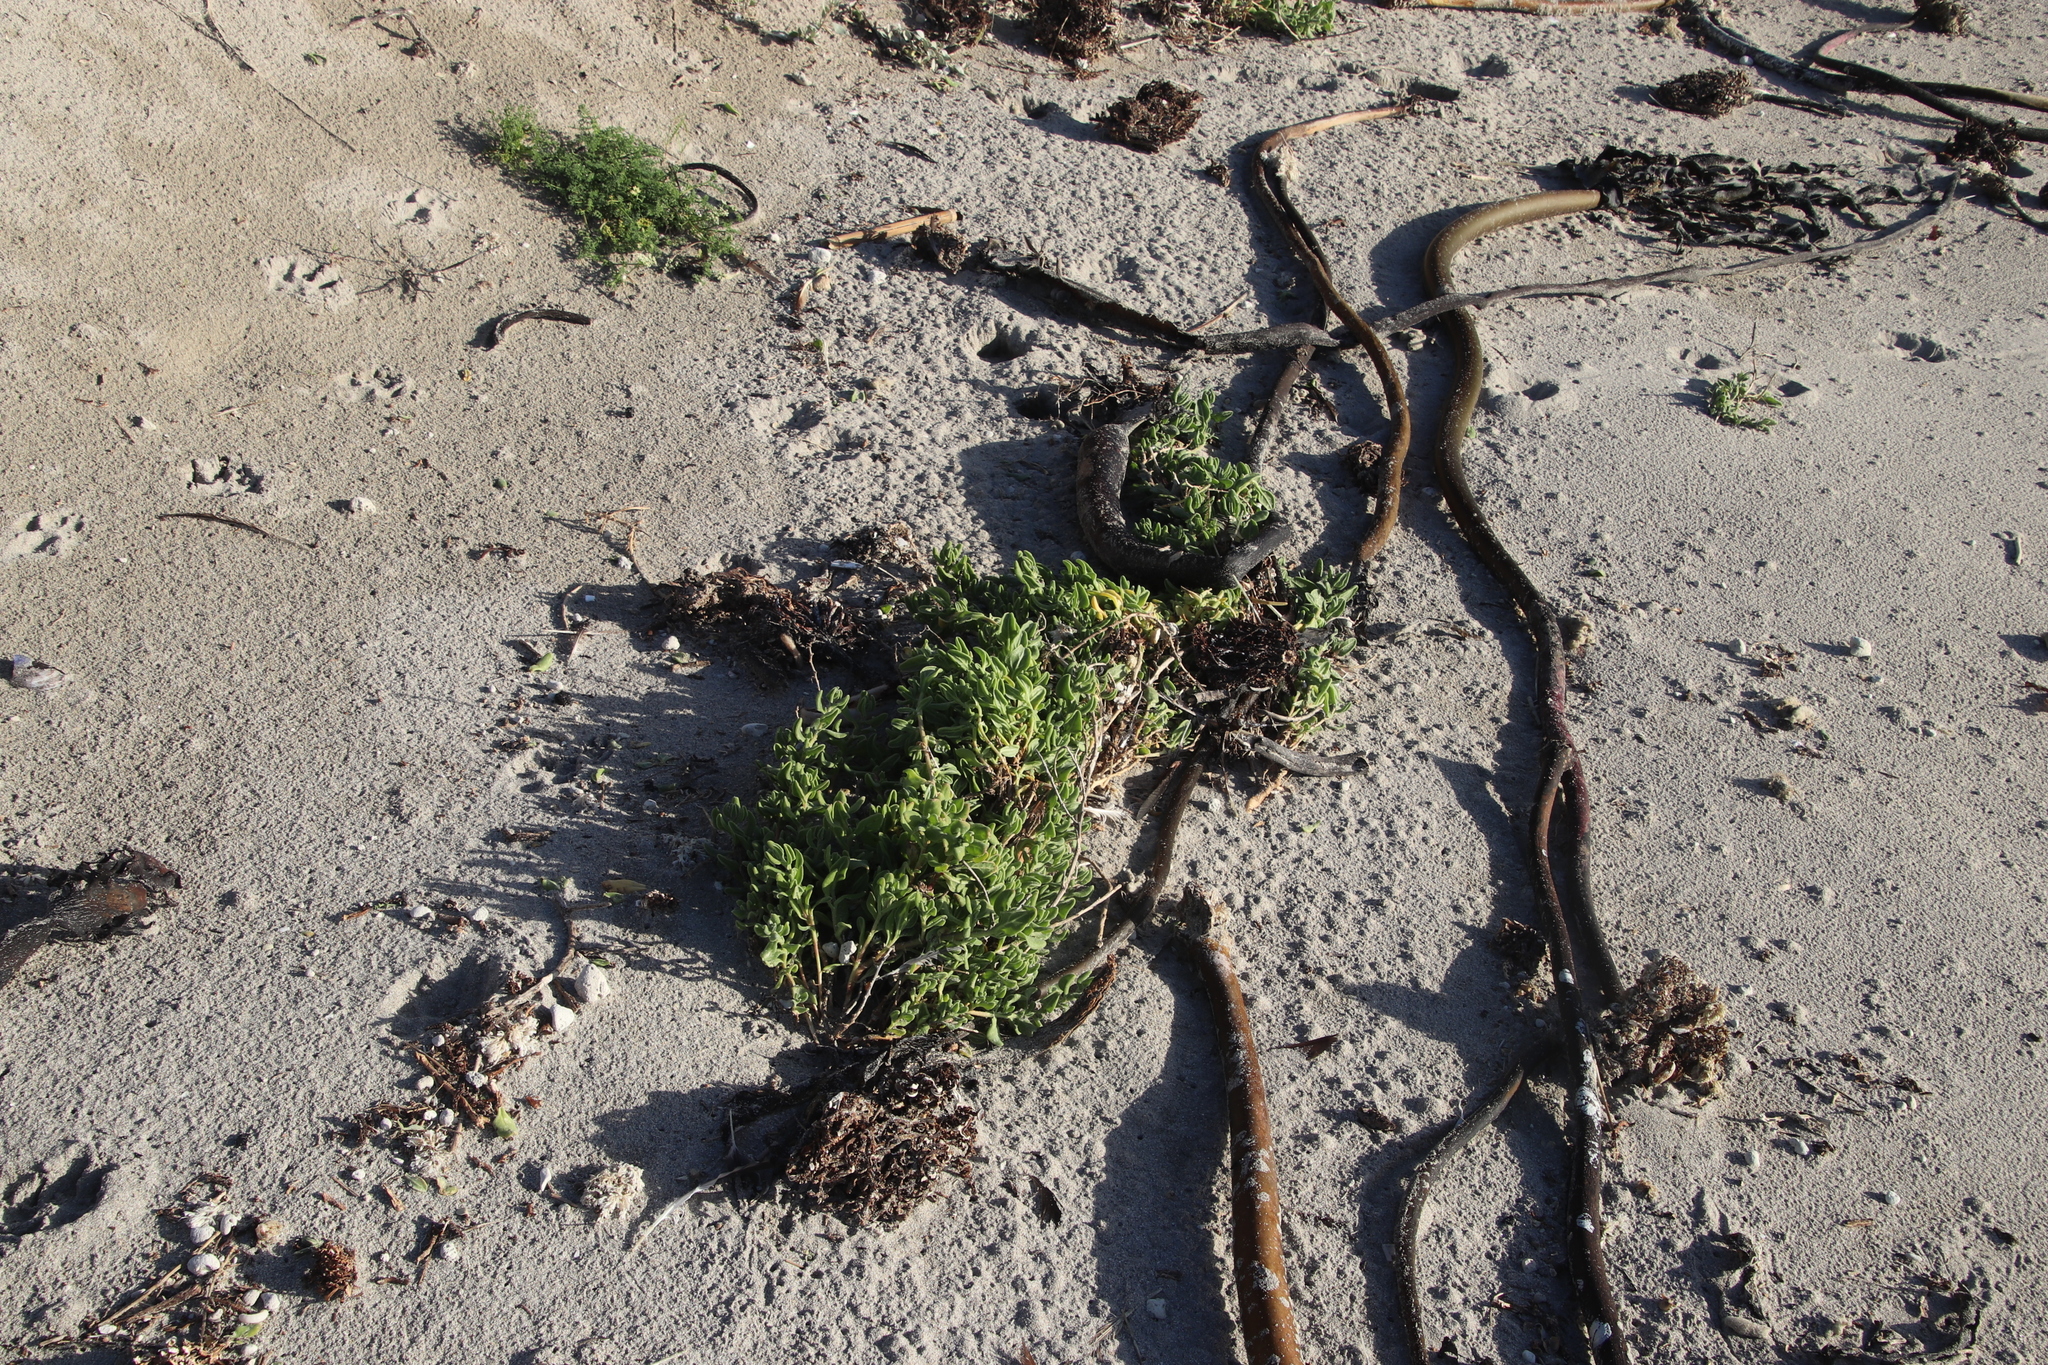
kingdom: Plantae
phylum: Tracheophyta
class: Magnoliopsida
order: Caryophyllales
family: Aizoaceae
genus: Tetragonia
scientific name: Tetragonia decumbens
